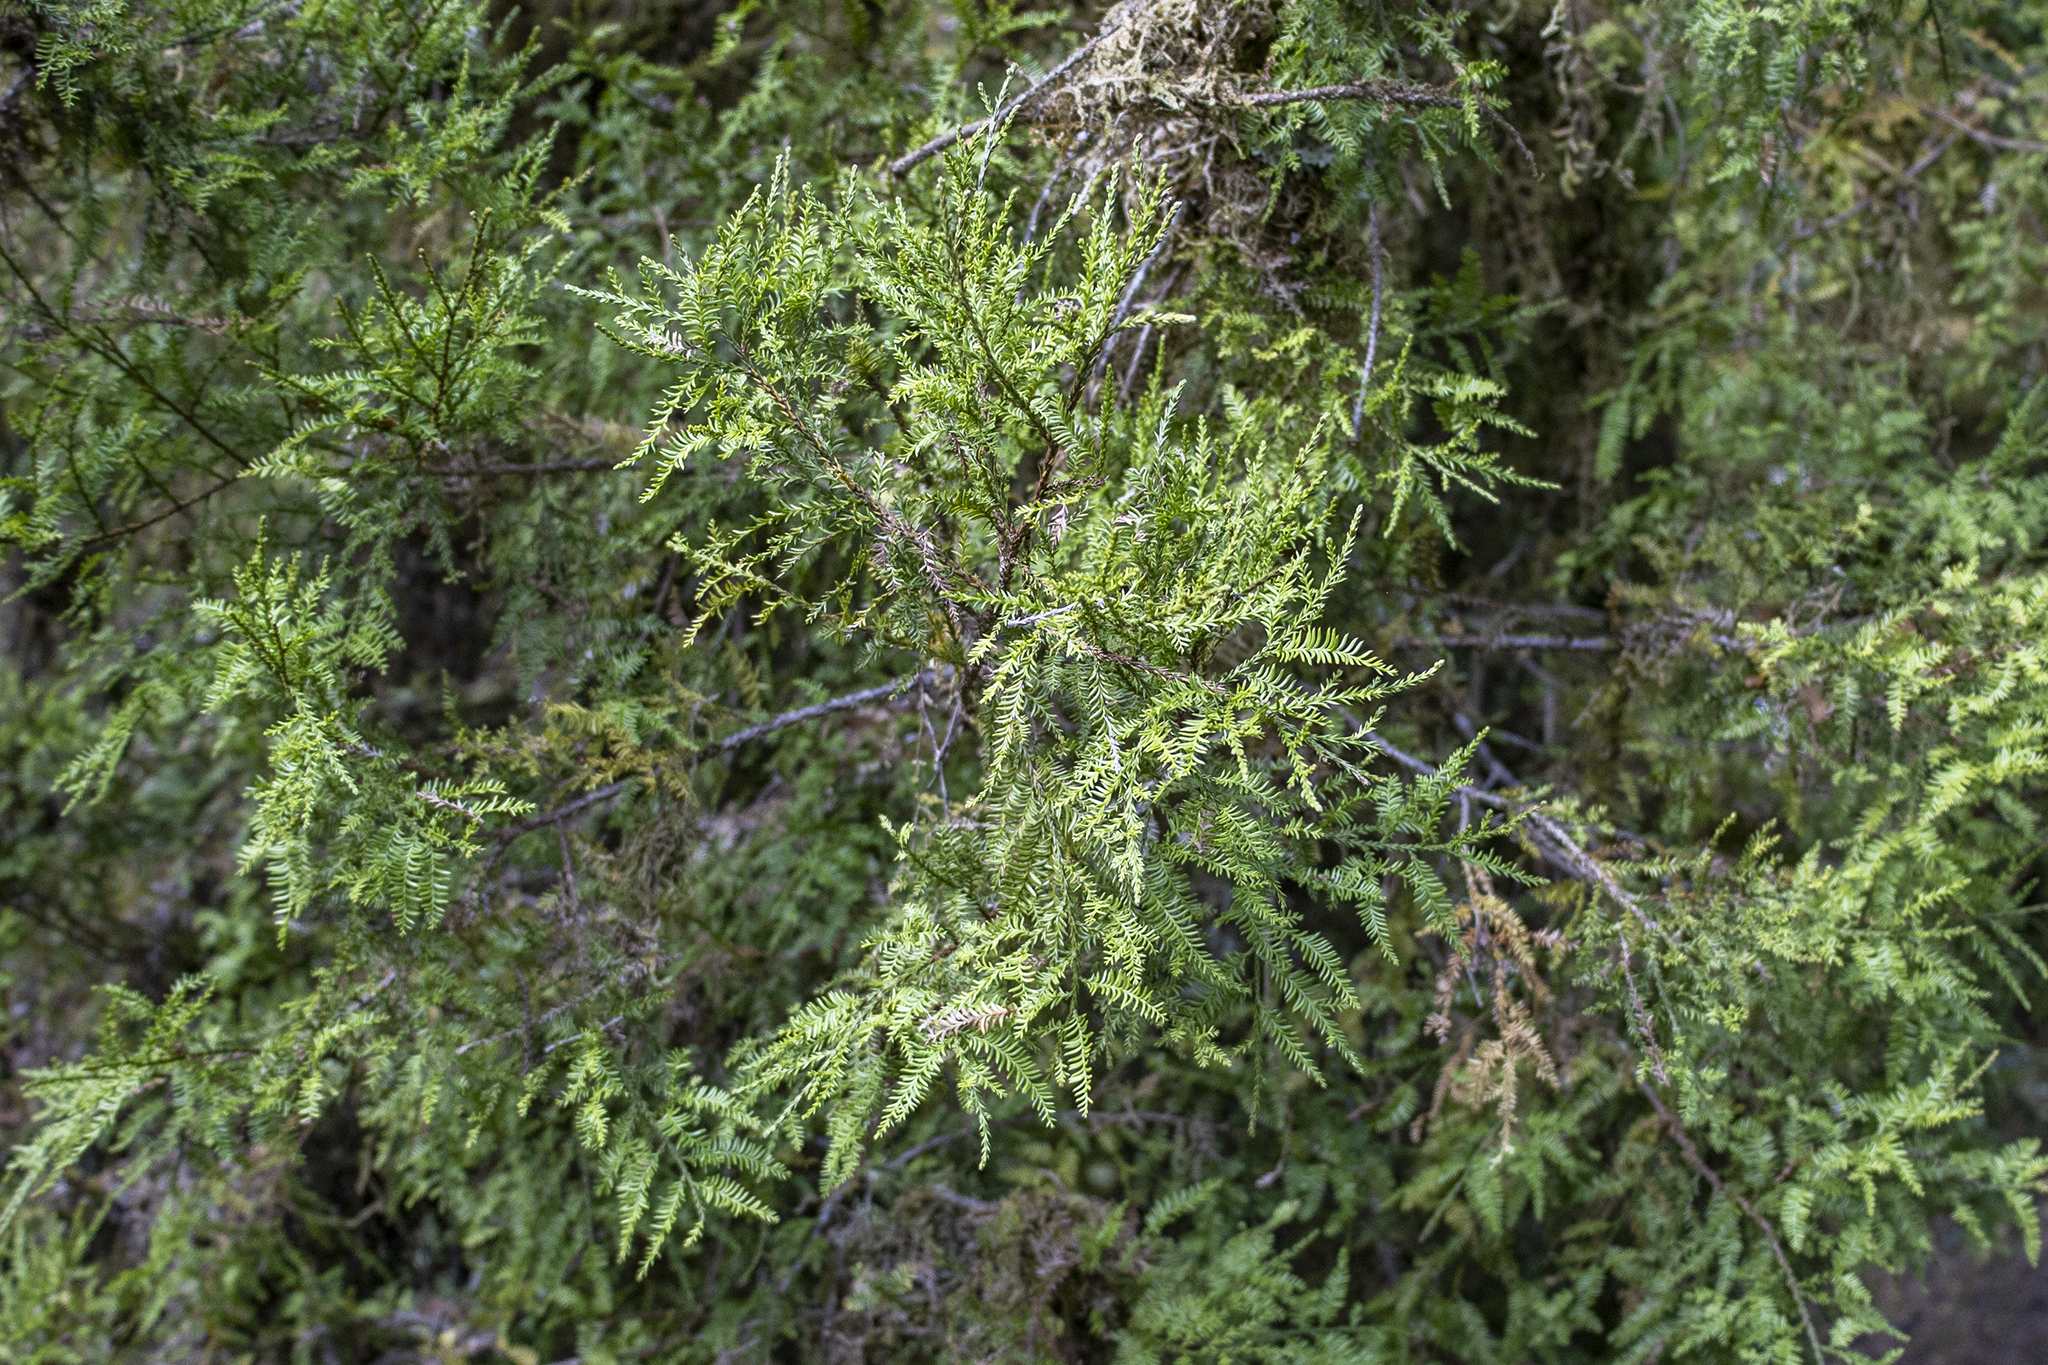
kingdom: Plantae
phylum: Tracheophyta
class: Pinopsida
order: Pinales
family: Podocarpaceae
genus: Dacrycarpus
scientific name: Dacrycarpus dacrydioides
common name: White pine
